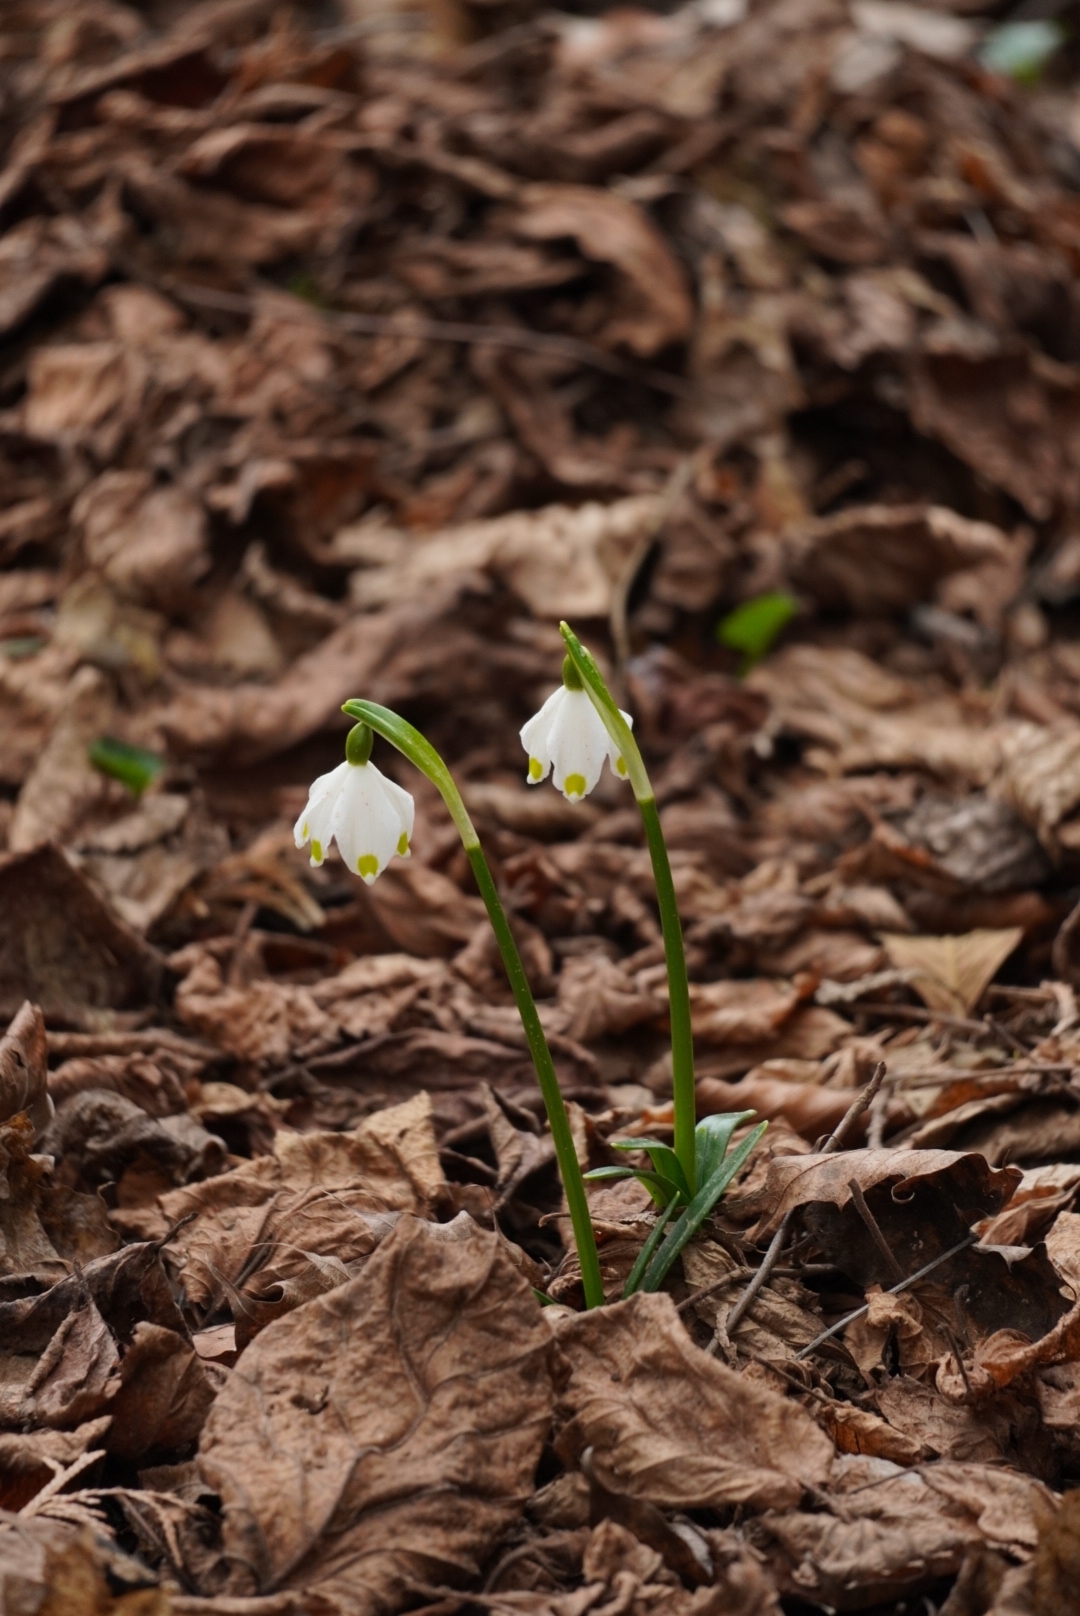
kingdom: Plantae
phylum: Tracheophyta
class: Liliopsida
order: Asparagales
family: Amaryllidaceae
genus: Leucojum
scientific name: Leucojum vernum
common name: Spring snowflake
